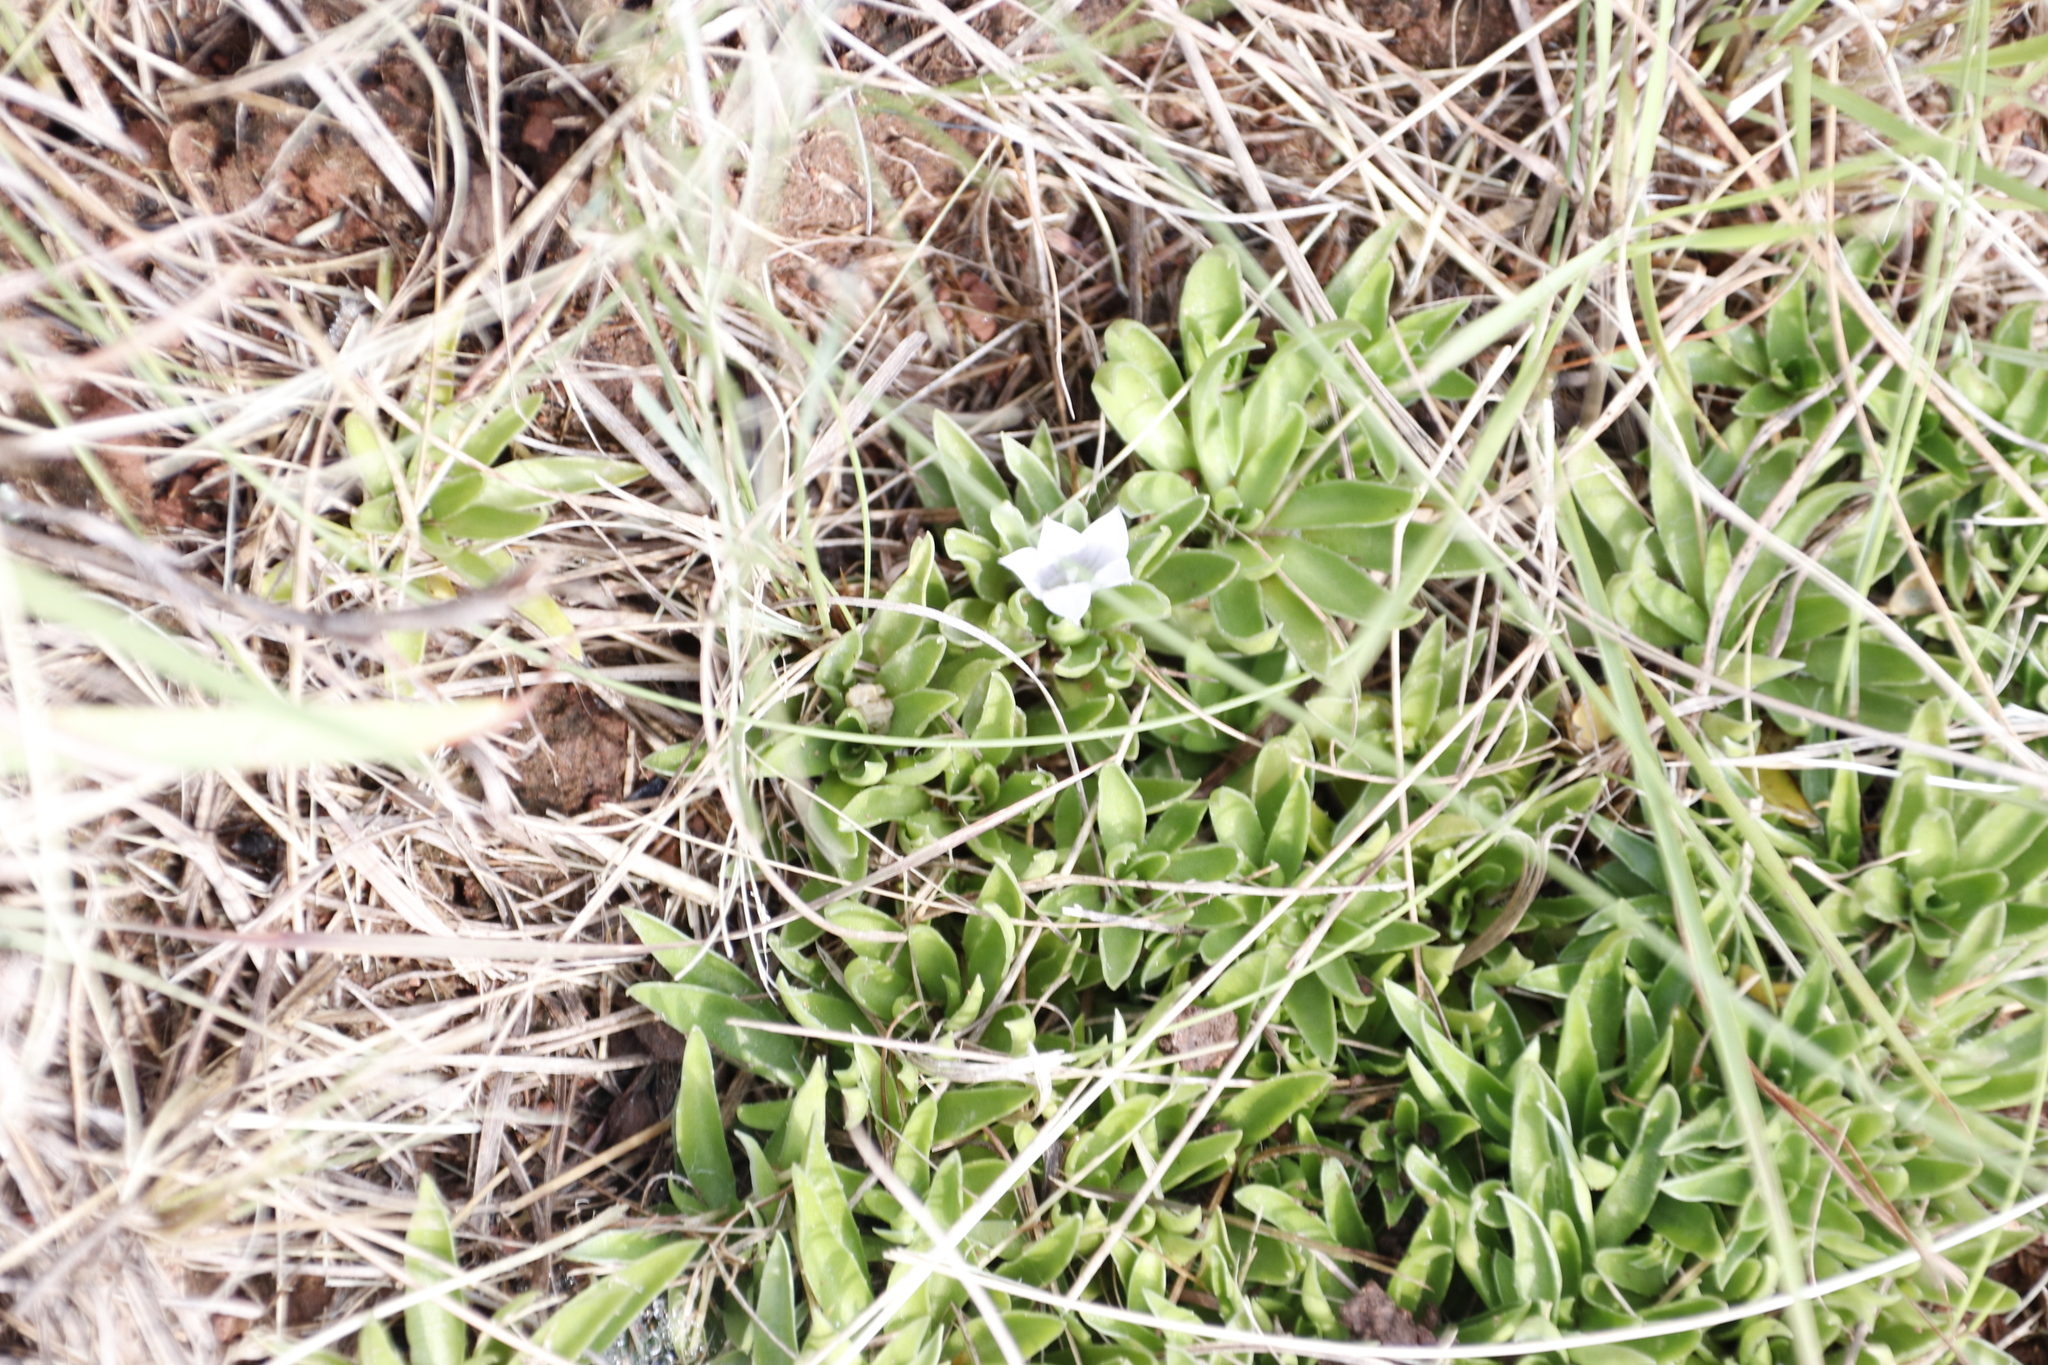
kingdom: Plantae
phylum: Tracheophyta
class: Magnoliopsida
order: Asterales
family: Campanulaceae
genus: Craterocapsa
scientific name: Craterocapsa tarsodes
